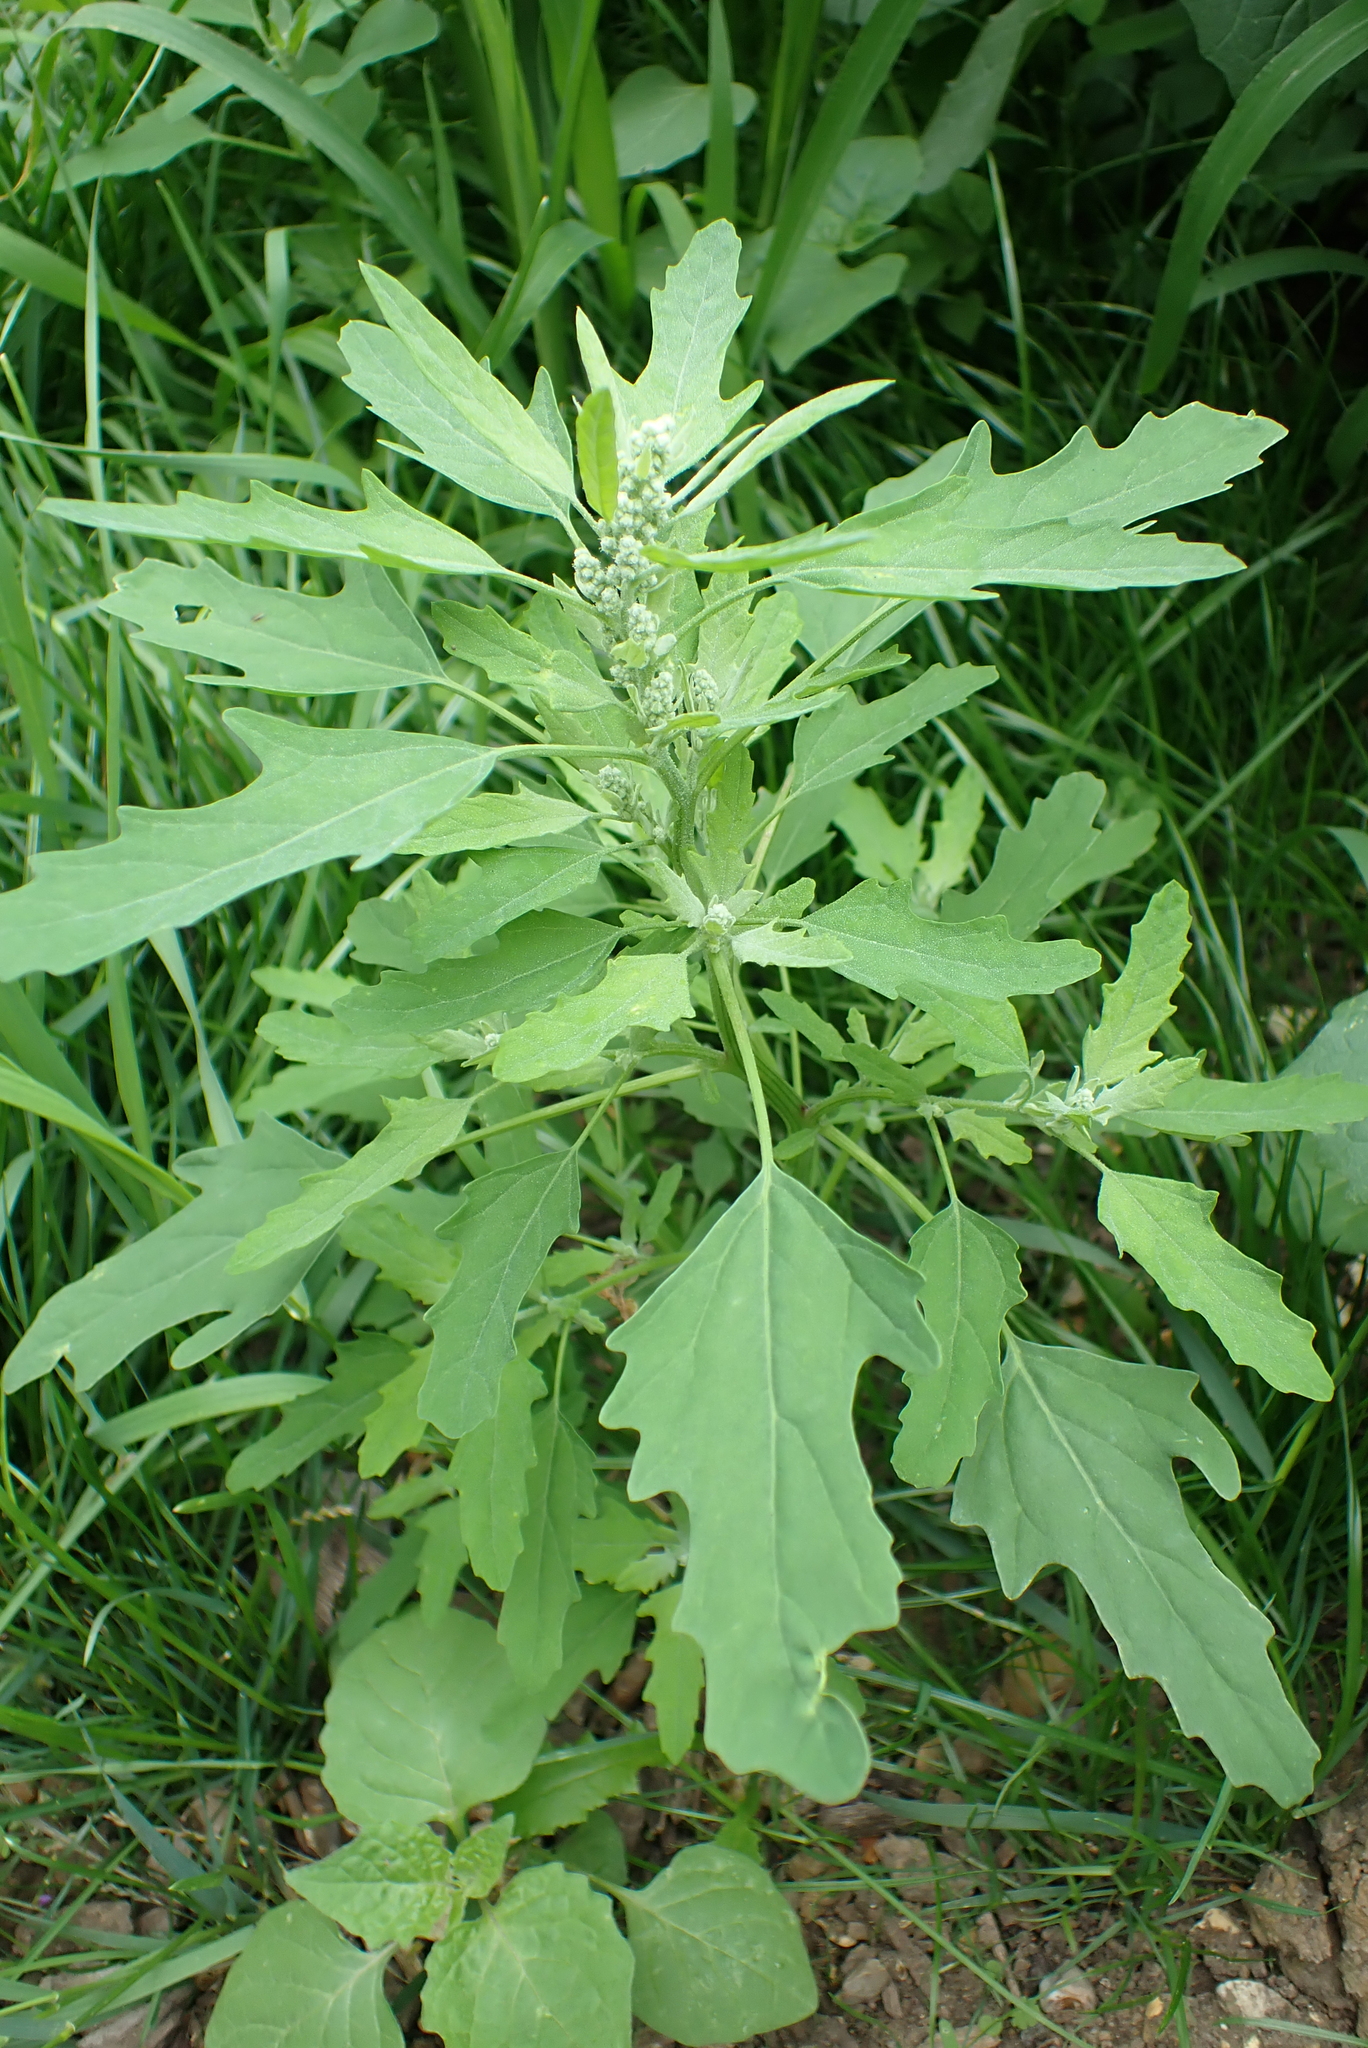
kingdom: Plantae
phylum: Tracheophyta
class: Magnoliopsida
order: Caryophyllales
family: Amaranthaceae
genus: Chenopodium
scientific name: Chenopodium ficifolium
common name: Fig-leaved goosefoot
